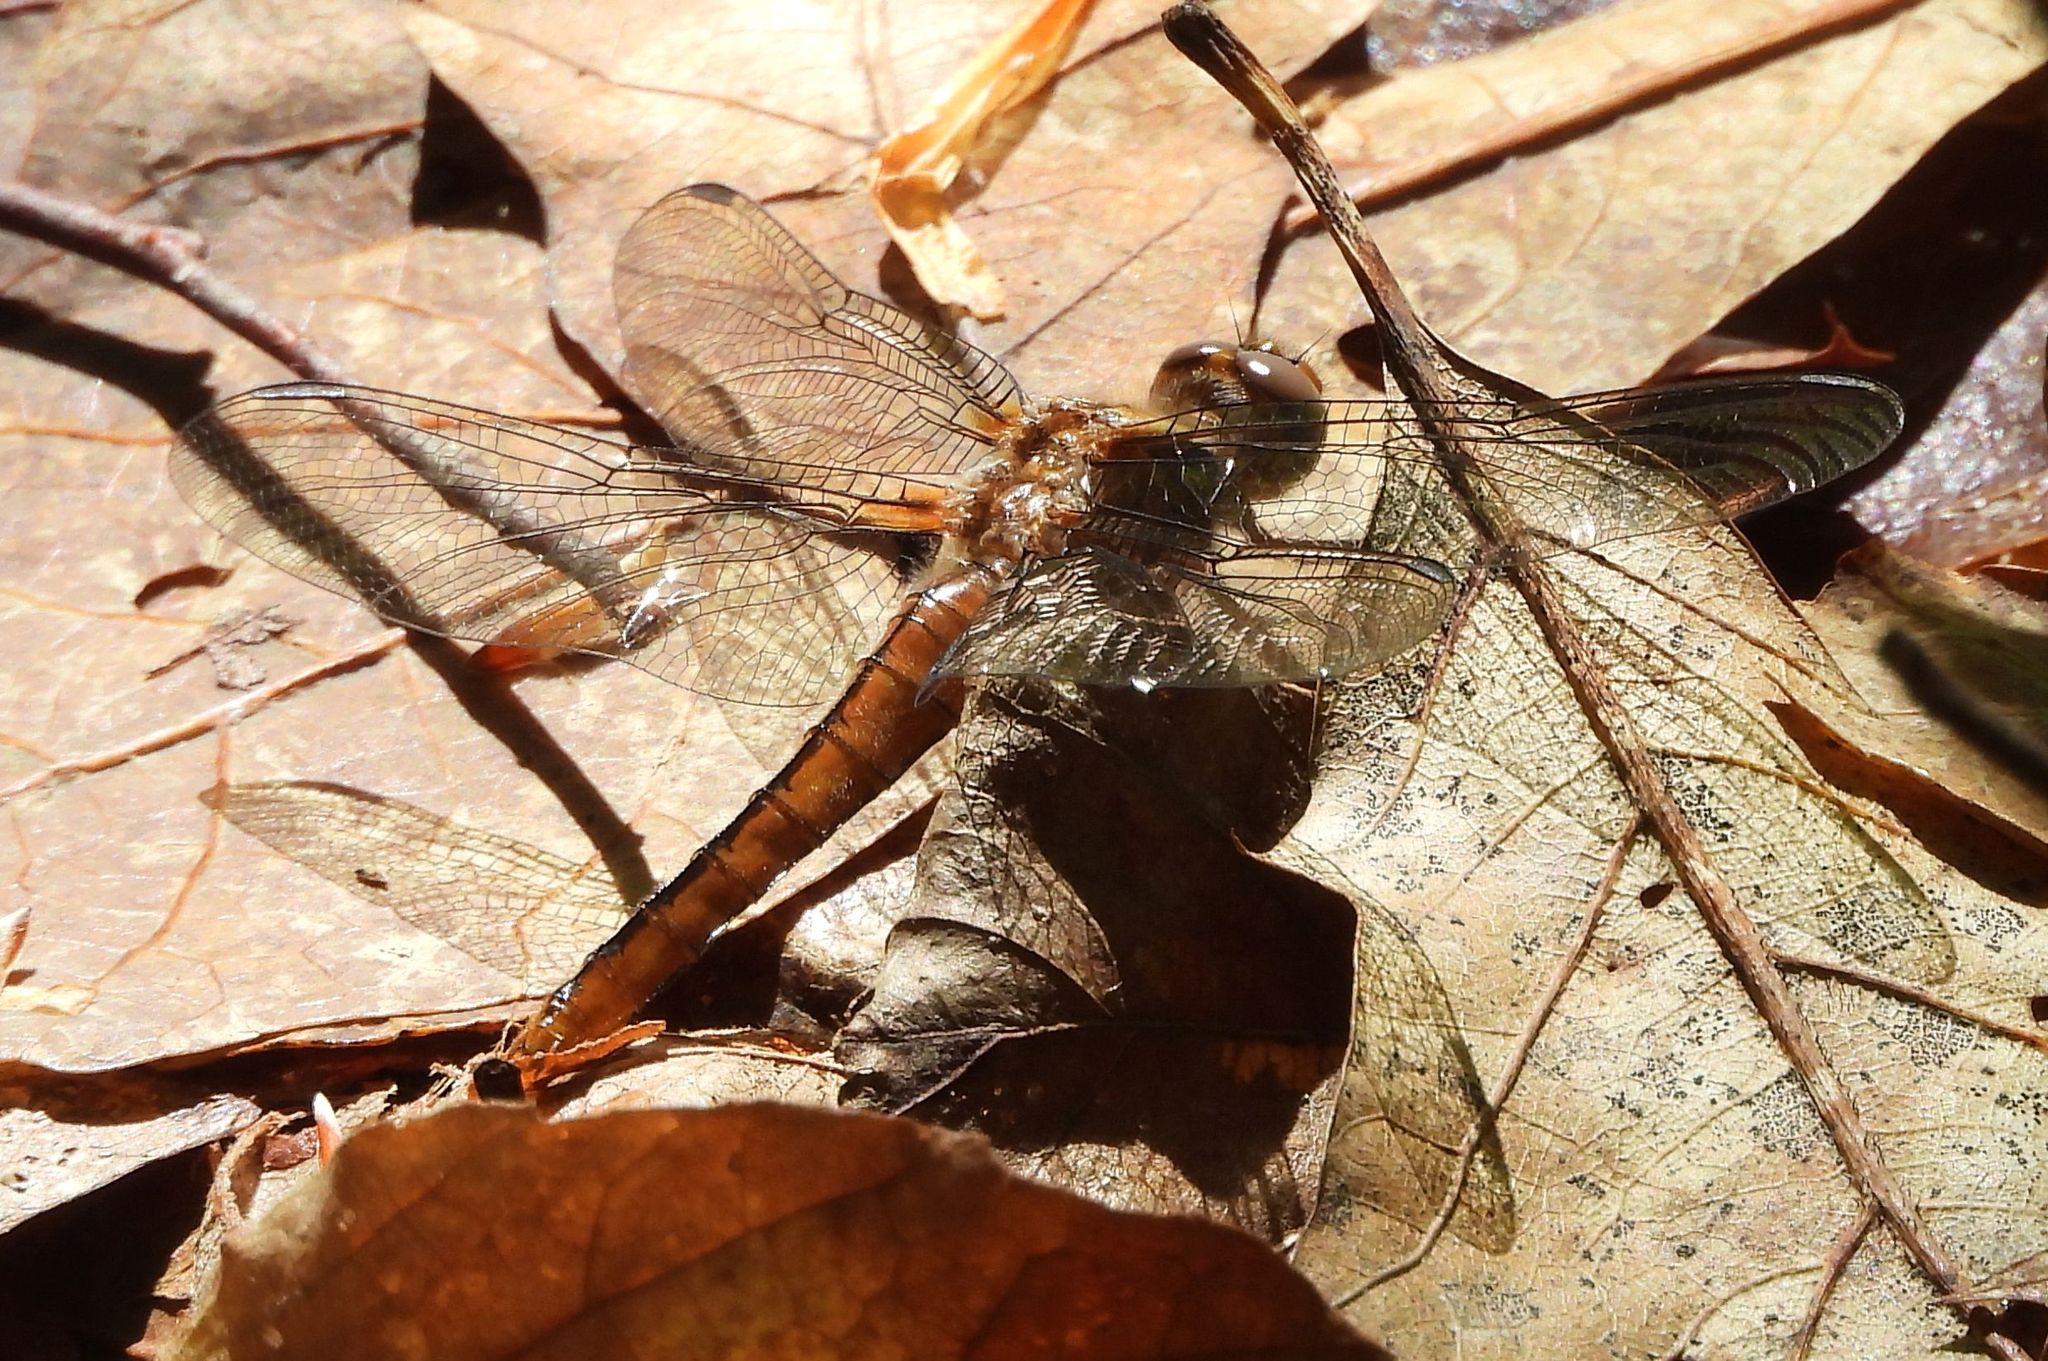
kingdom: Animalia
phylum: Arthropoda
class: Insecta
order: Odonata
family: Libellulidae
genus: Ladona
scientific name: Ladona julia
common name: Chalk-fronted corporal
